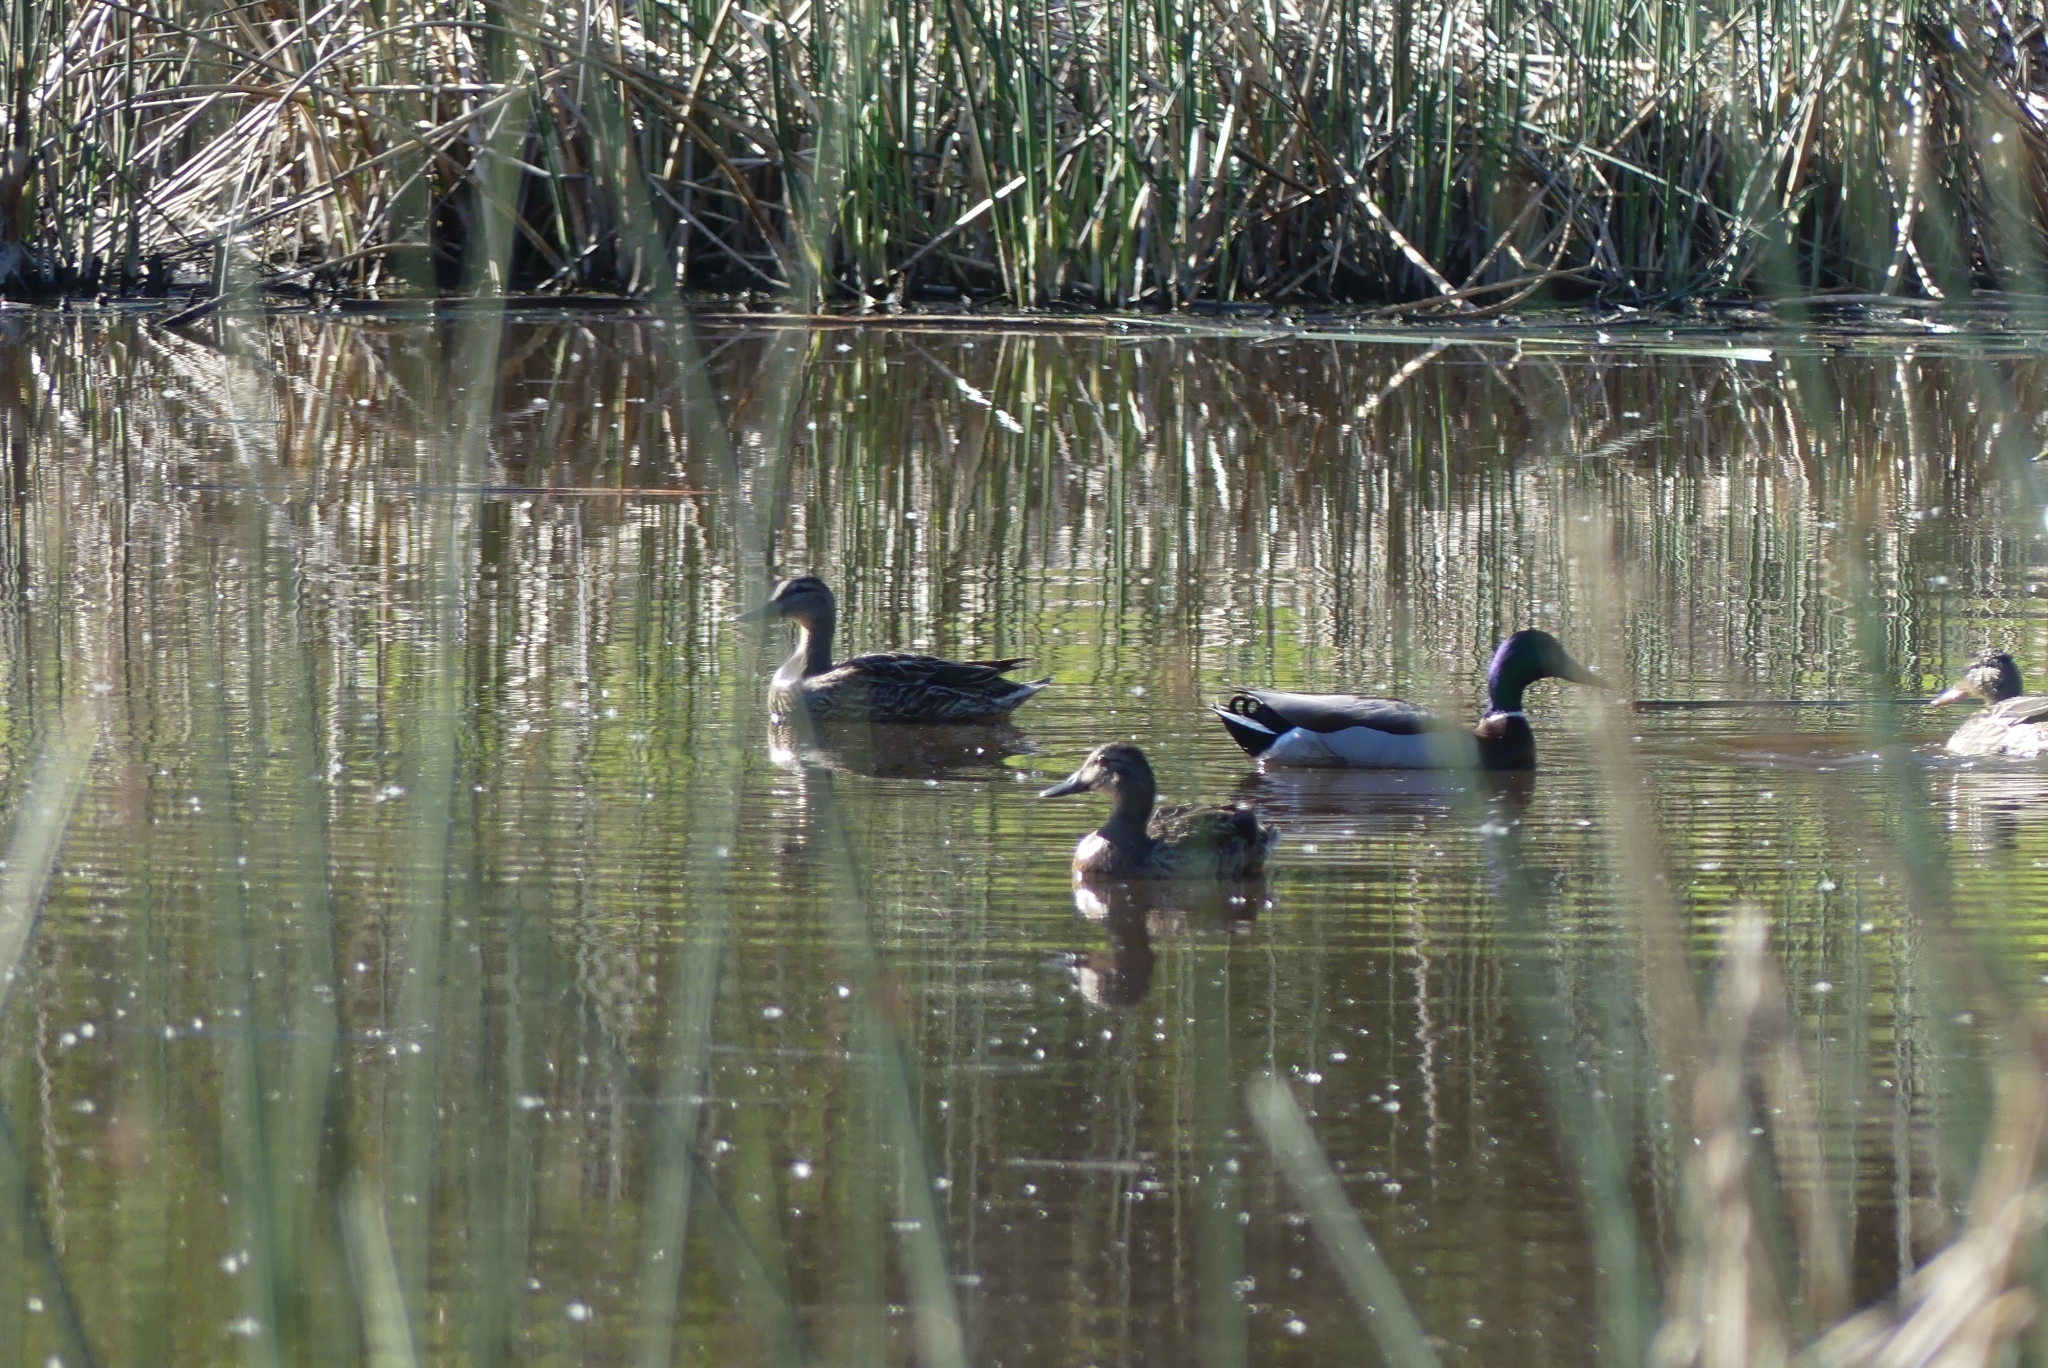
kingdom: Animalia
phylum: Chordata
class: Aves
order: Anseriformes
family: Anatidae
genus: Anas
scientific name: Anas platyrhynchos
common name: Mallard
